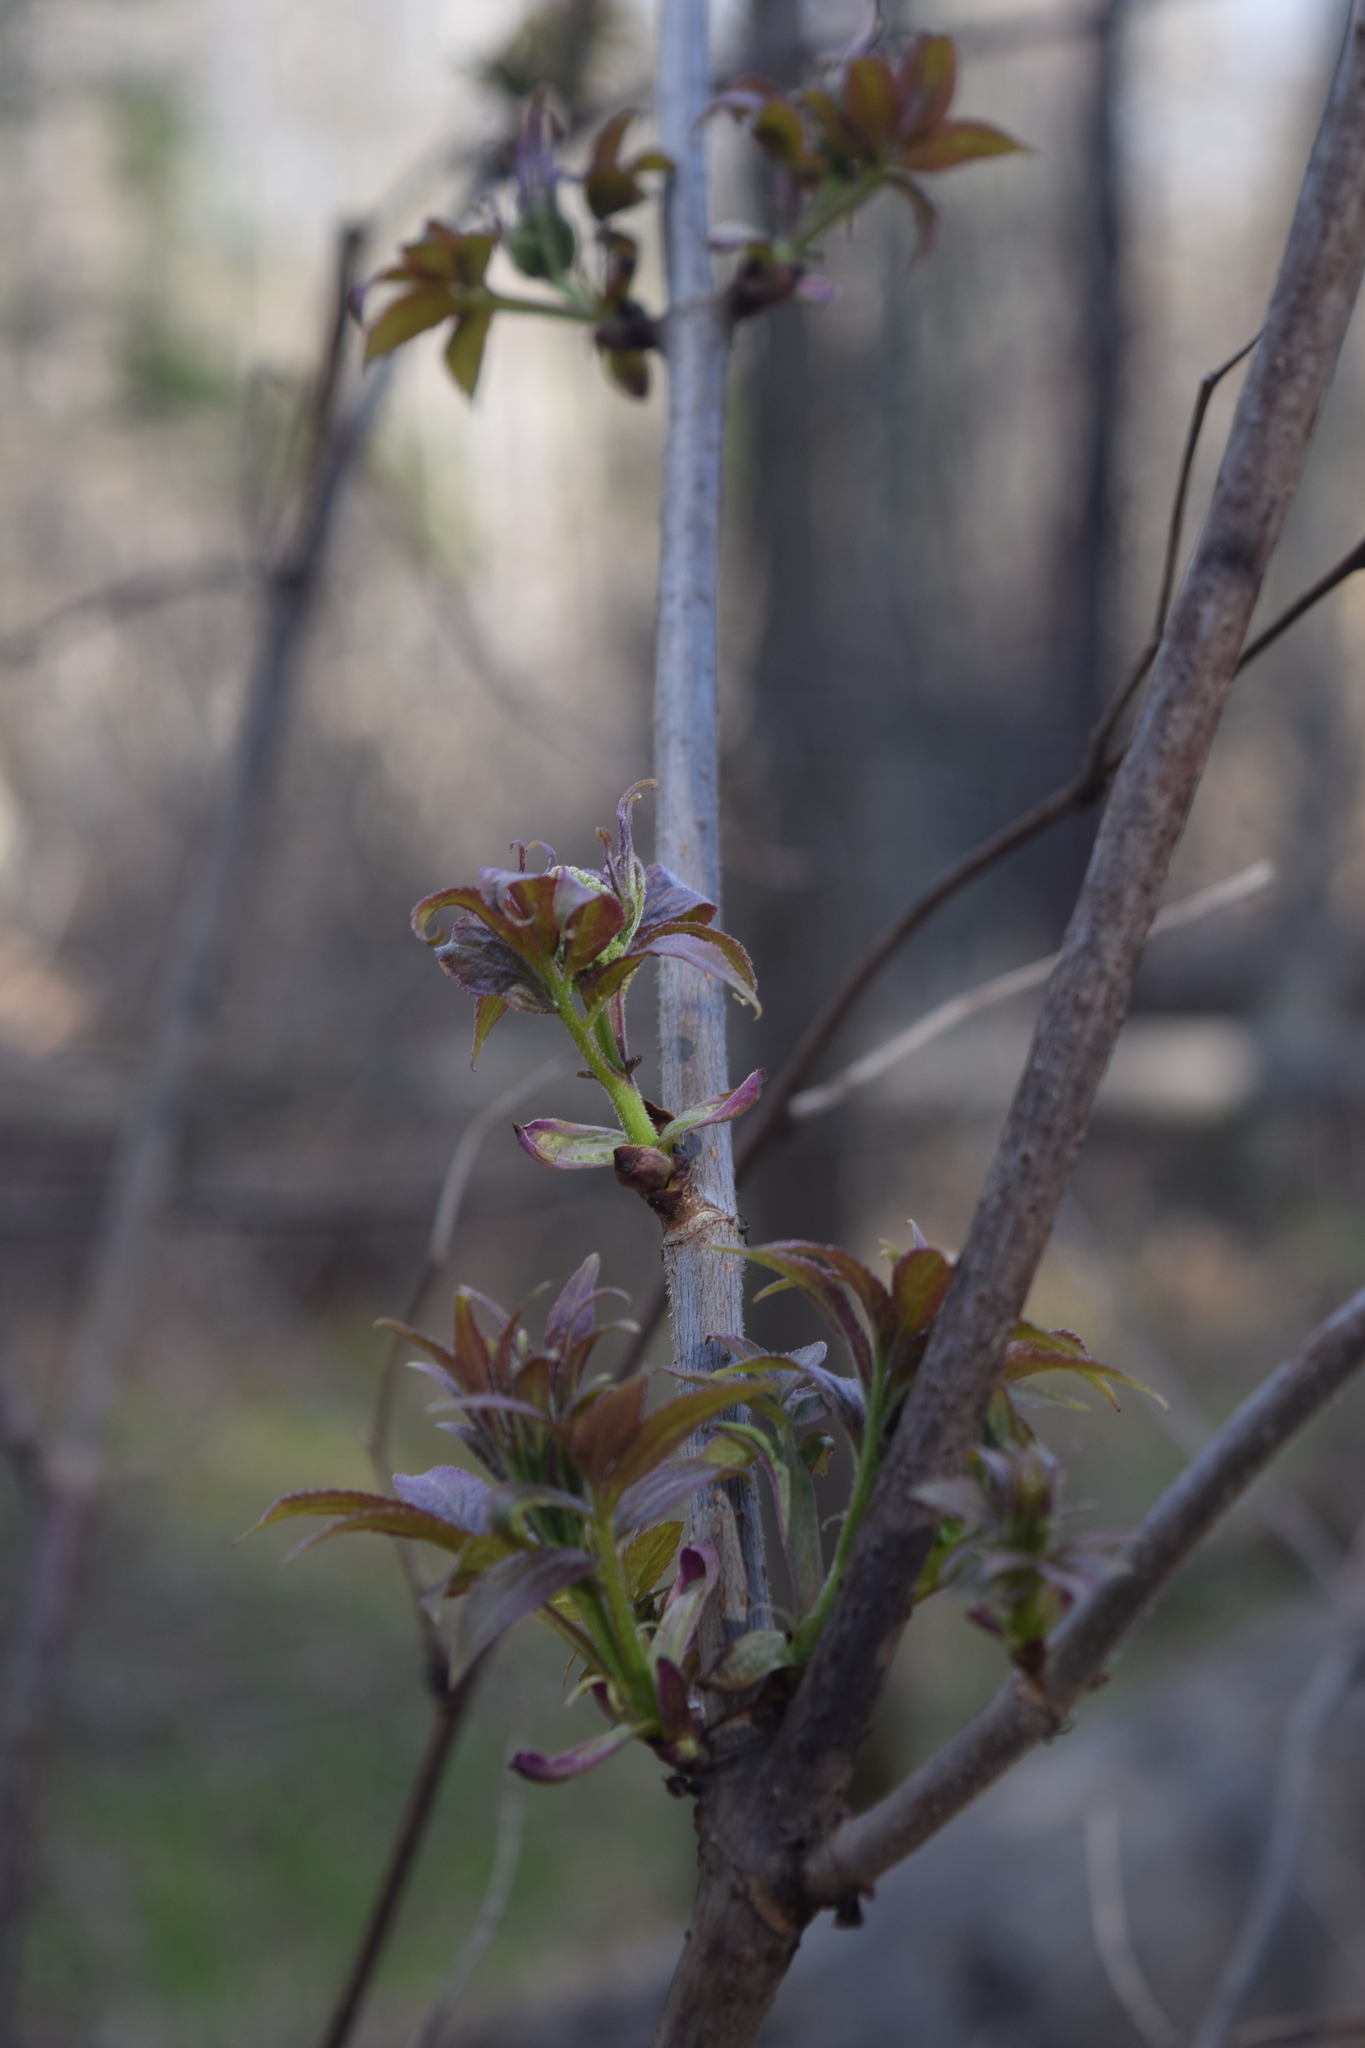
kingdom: Plantae
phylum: Tracheophyta
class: Magnoliopsida
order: Dipsacales
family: Viburnaceae
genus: Sambucus
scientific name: Sambucus racemosa
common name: Red-berried elder
